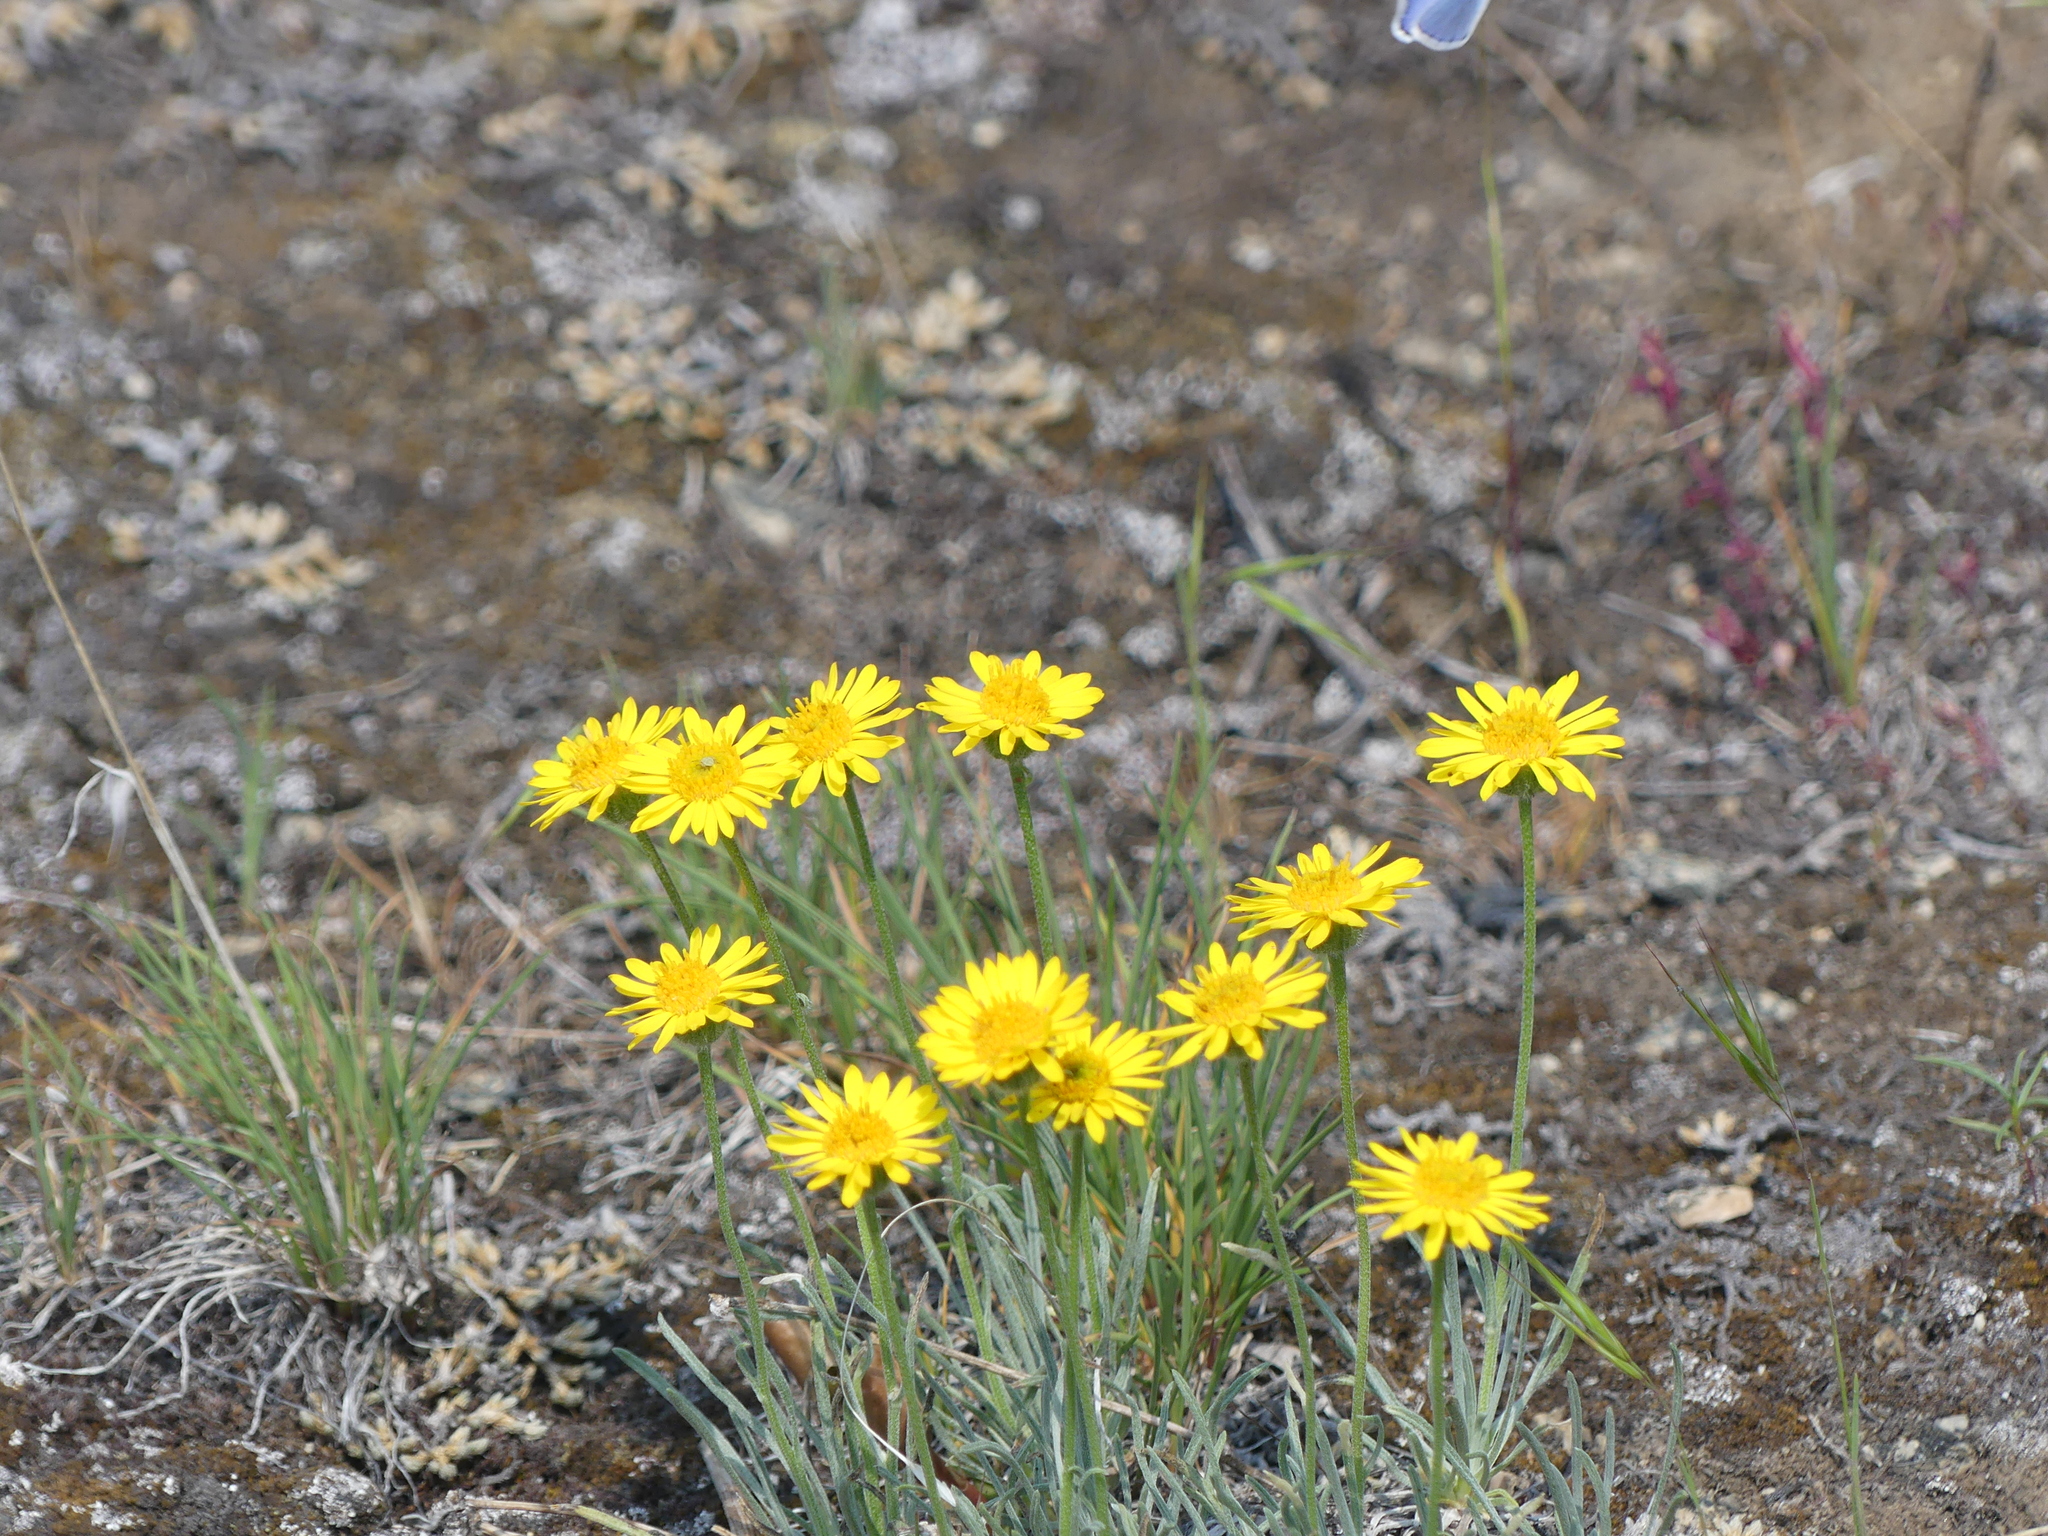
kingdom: Plantae
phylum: Tracheophyta
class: Magnoliopsida
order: Asterales
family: Asteraceae
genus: Erigeron
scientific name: Erigeron linearis
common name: Desert yellow fleabane
